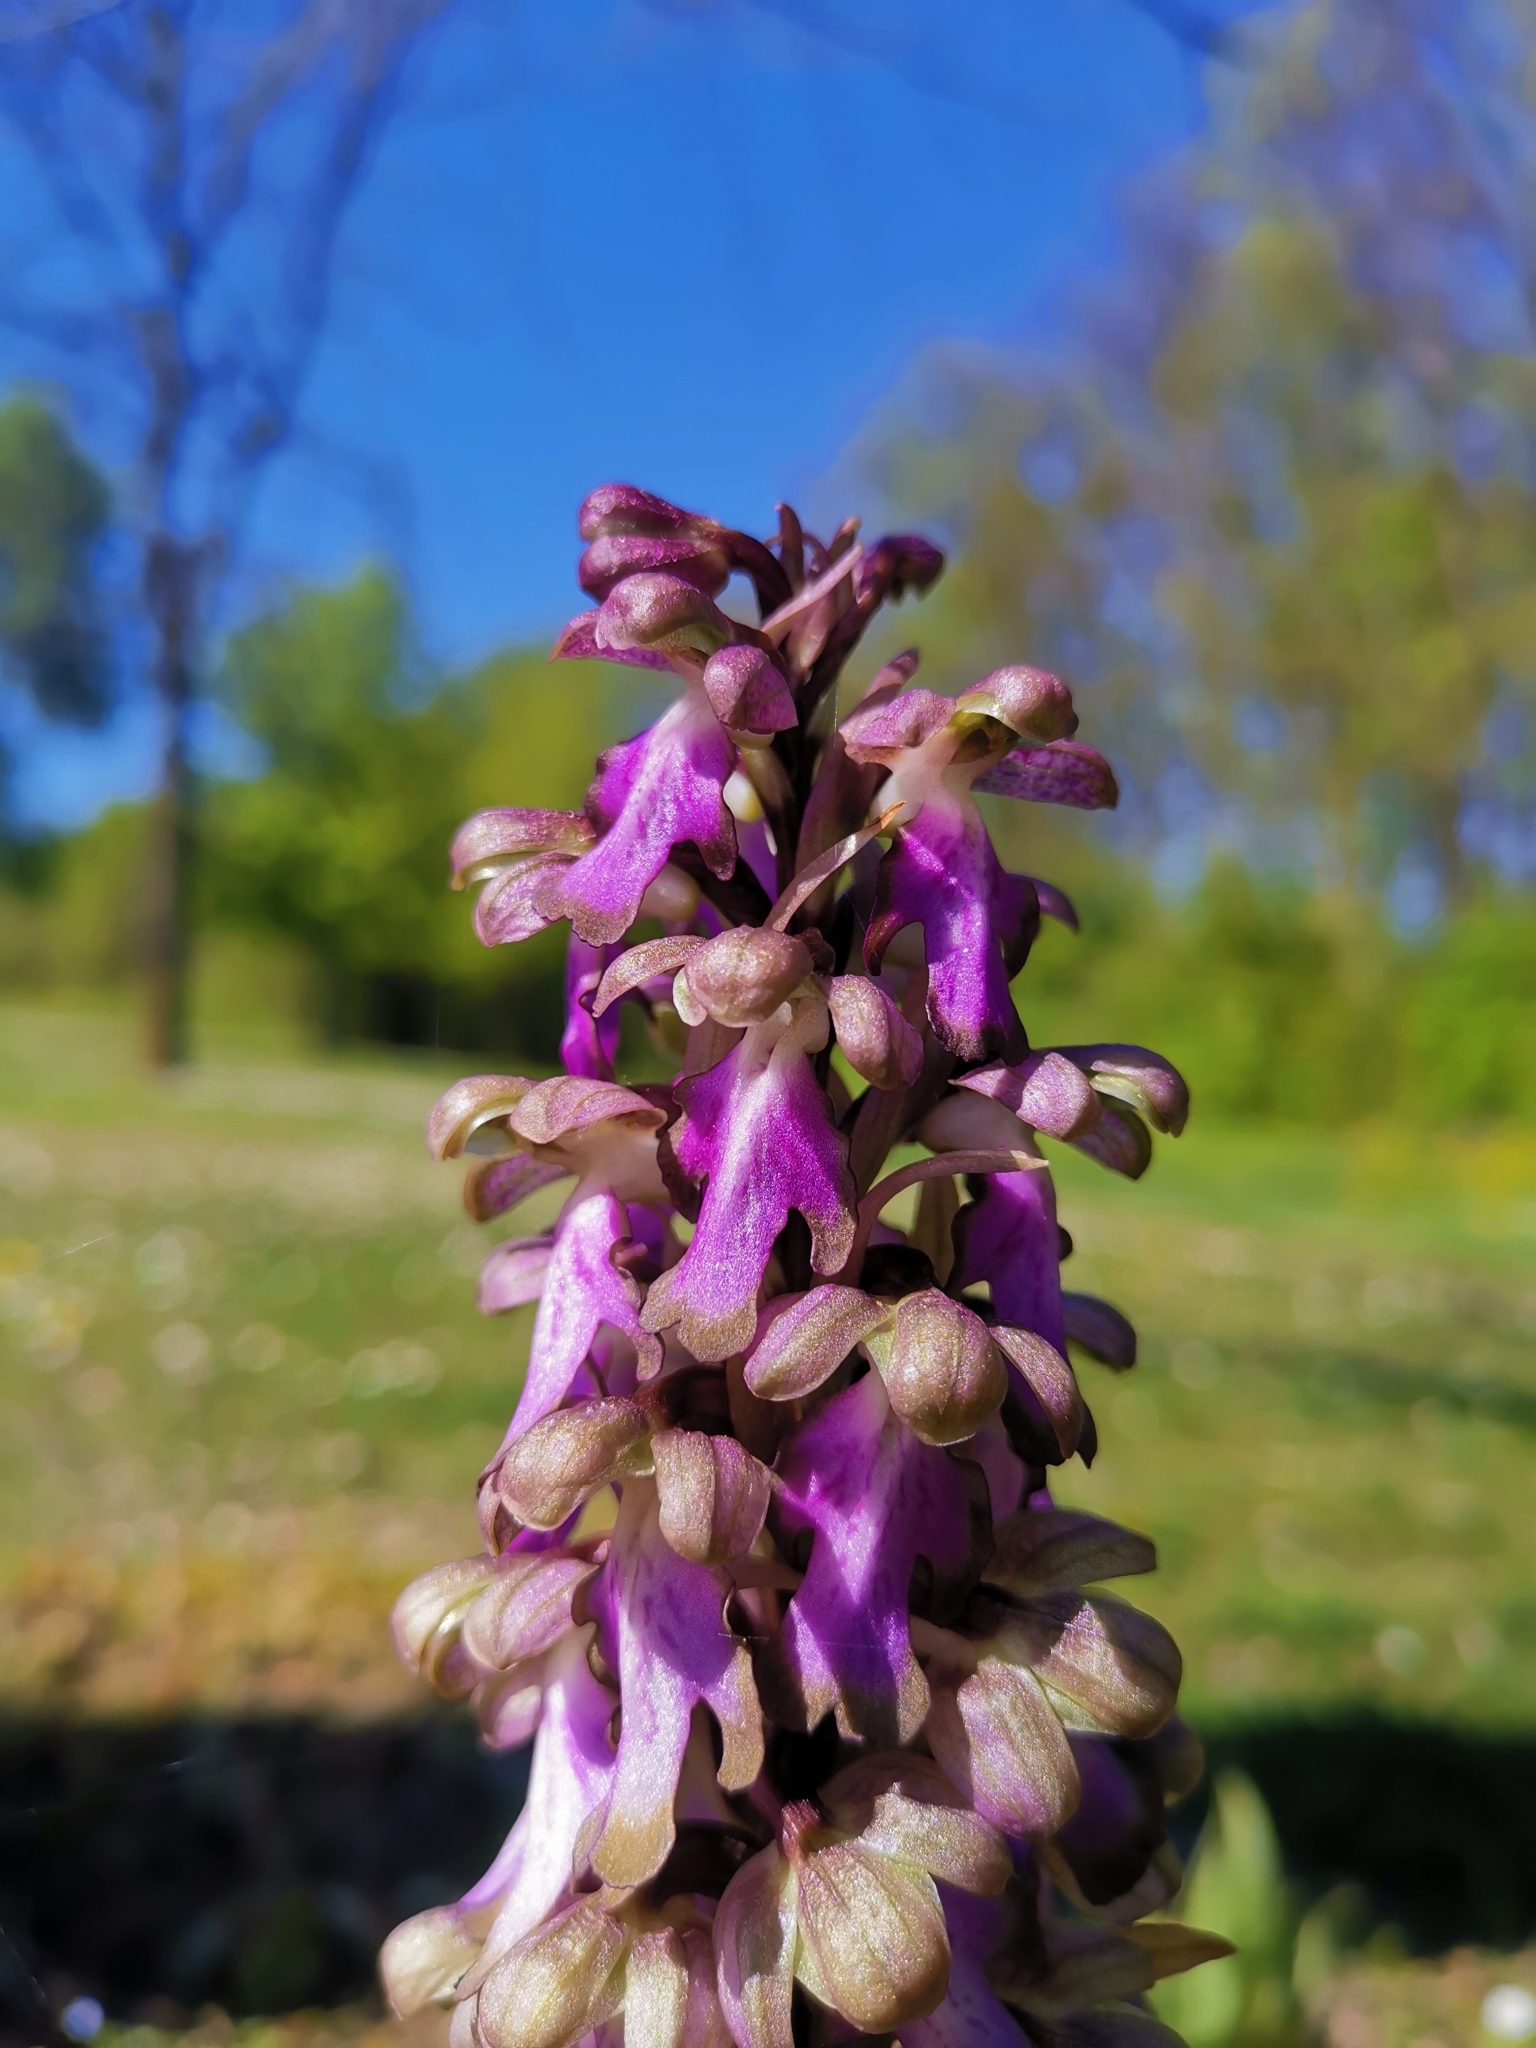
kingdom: Plantae
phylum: Tracheophyta
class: Liliopsida
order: Asparagales
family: Orchidaceae
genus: Himantoglossum
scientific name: Himantoglossum robertianum
